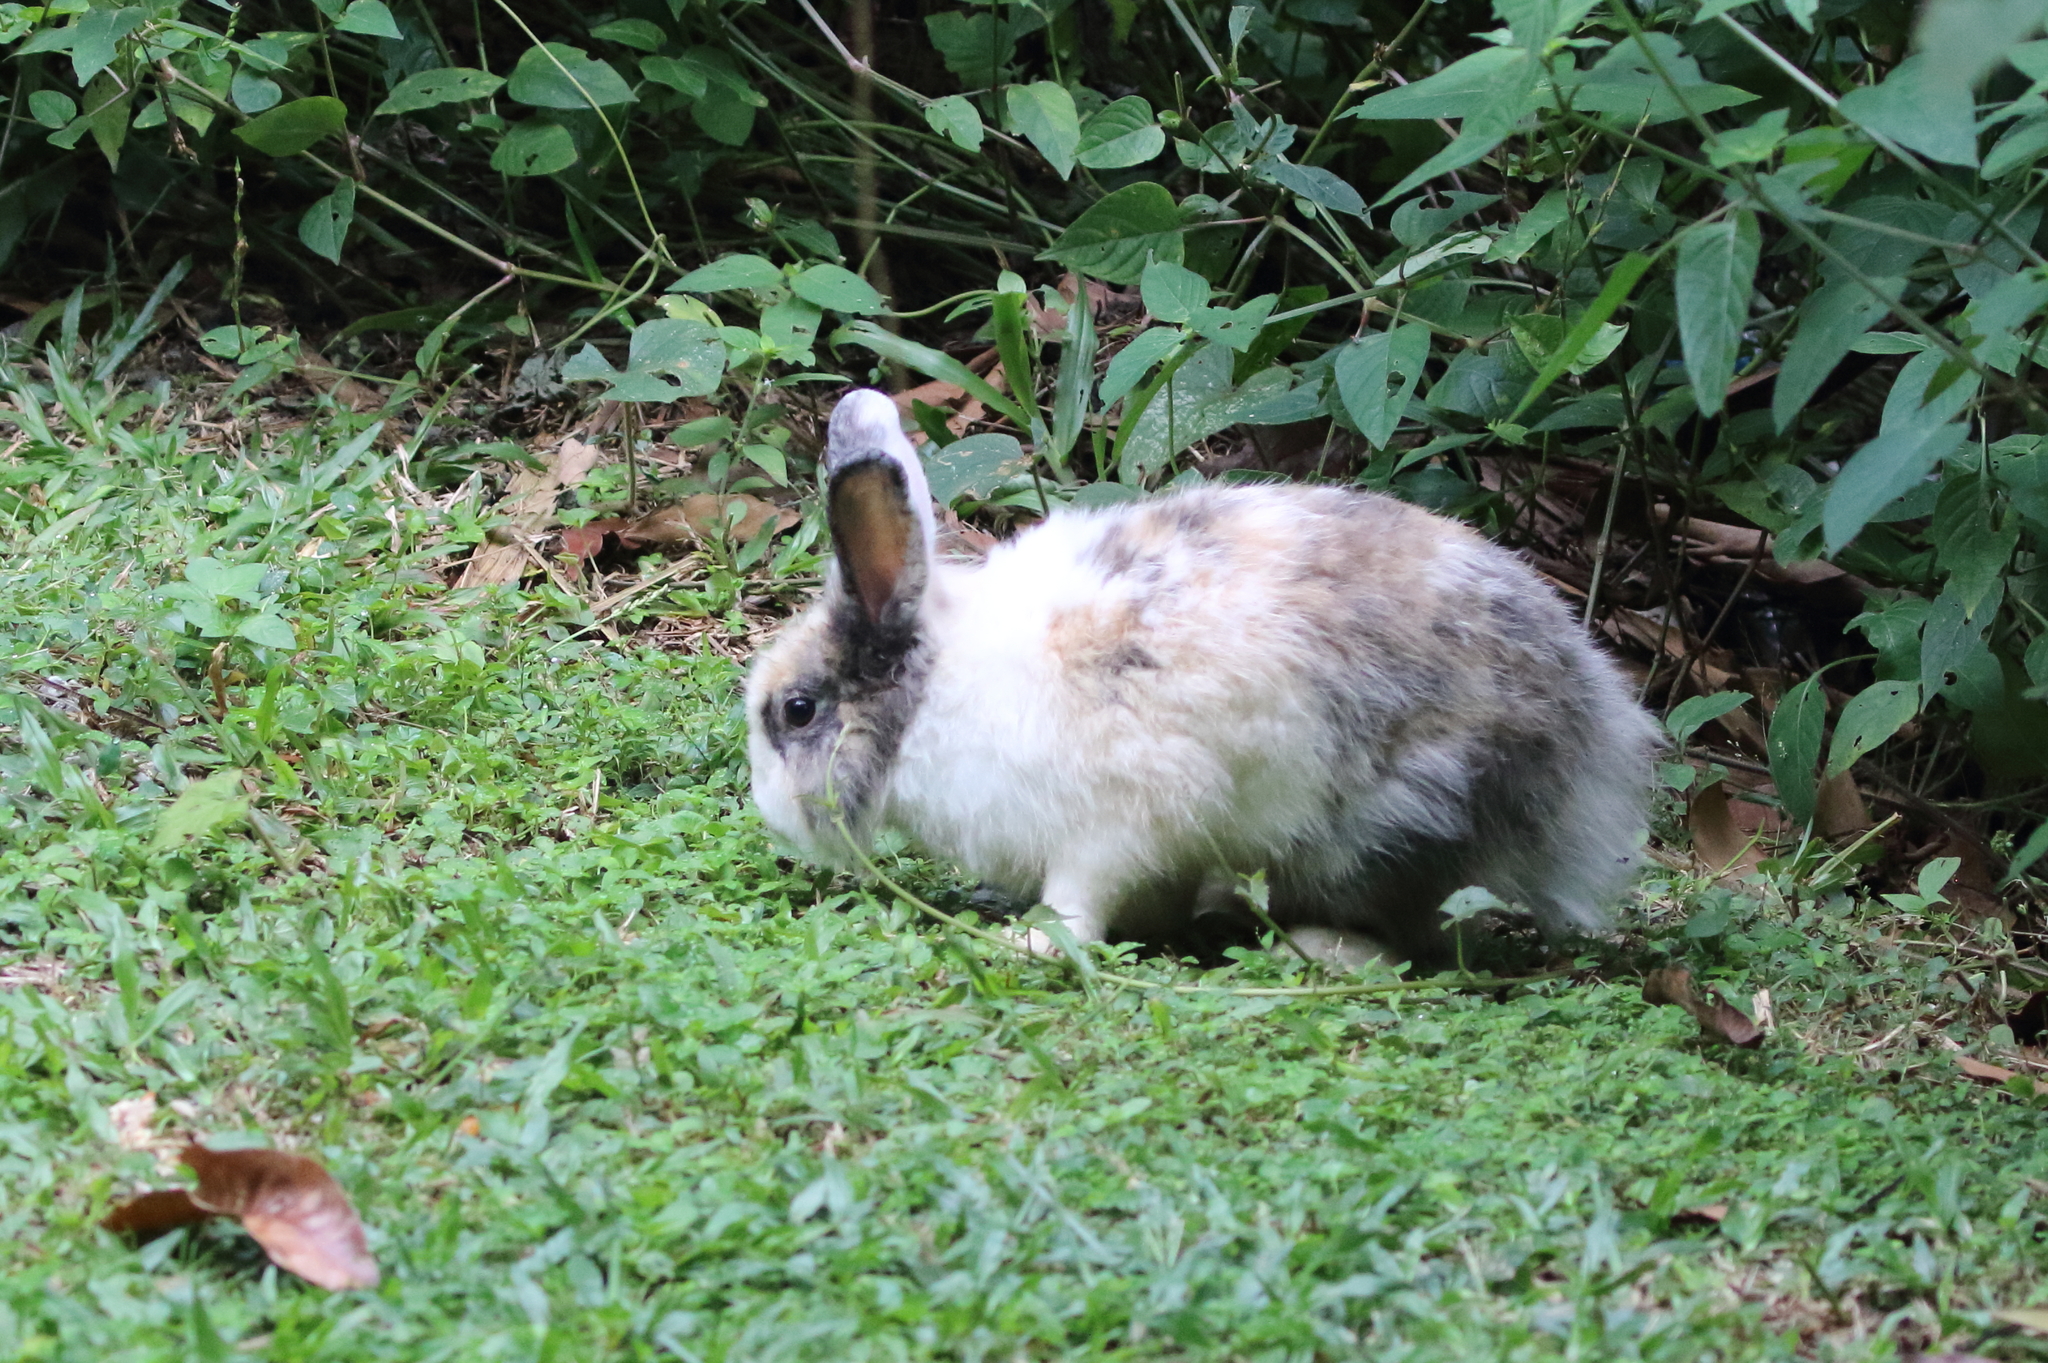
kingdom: Animalia
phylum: Chordata
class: Mammalia
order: Lagomorpha
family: Leporidae
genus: Oryctolagus
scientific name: Oryctolagus cuniculus
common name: European rabbit
